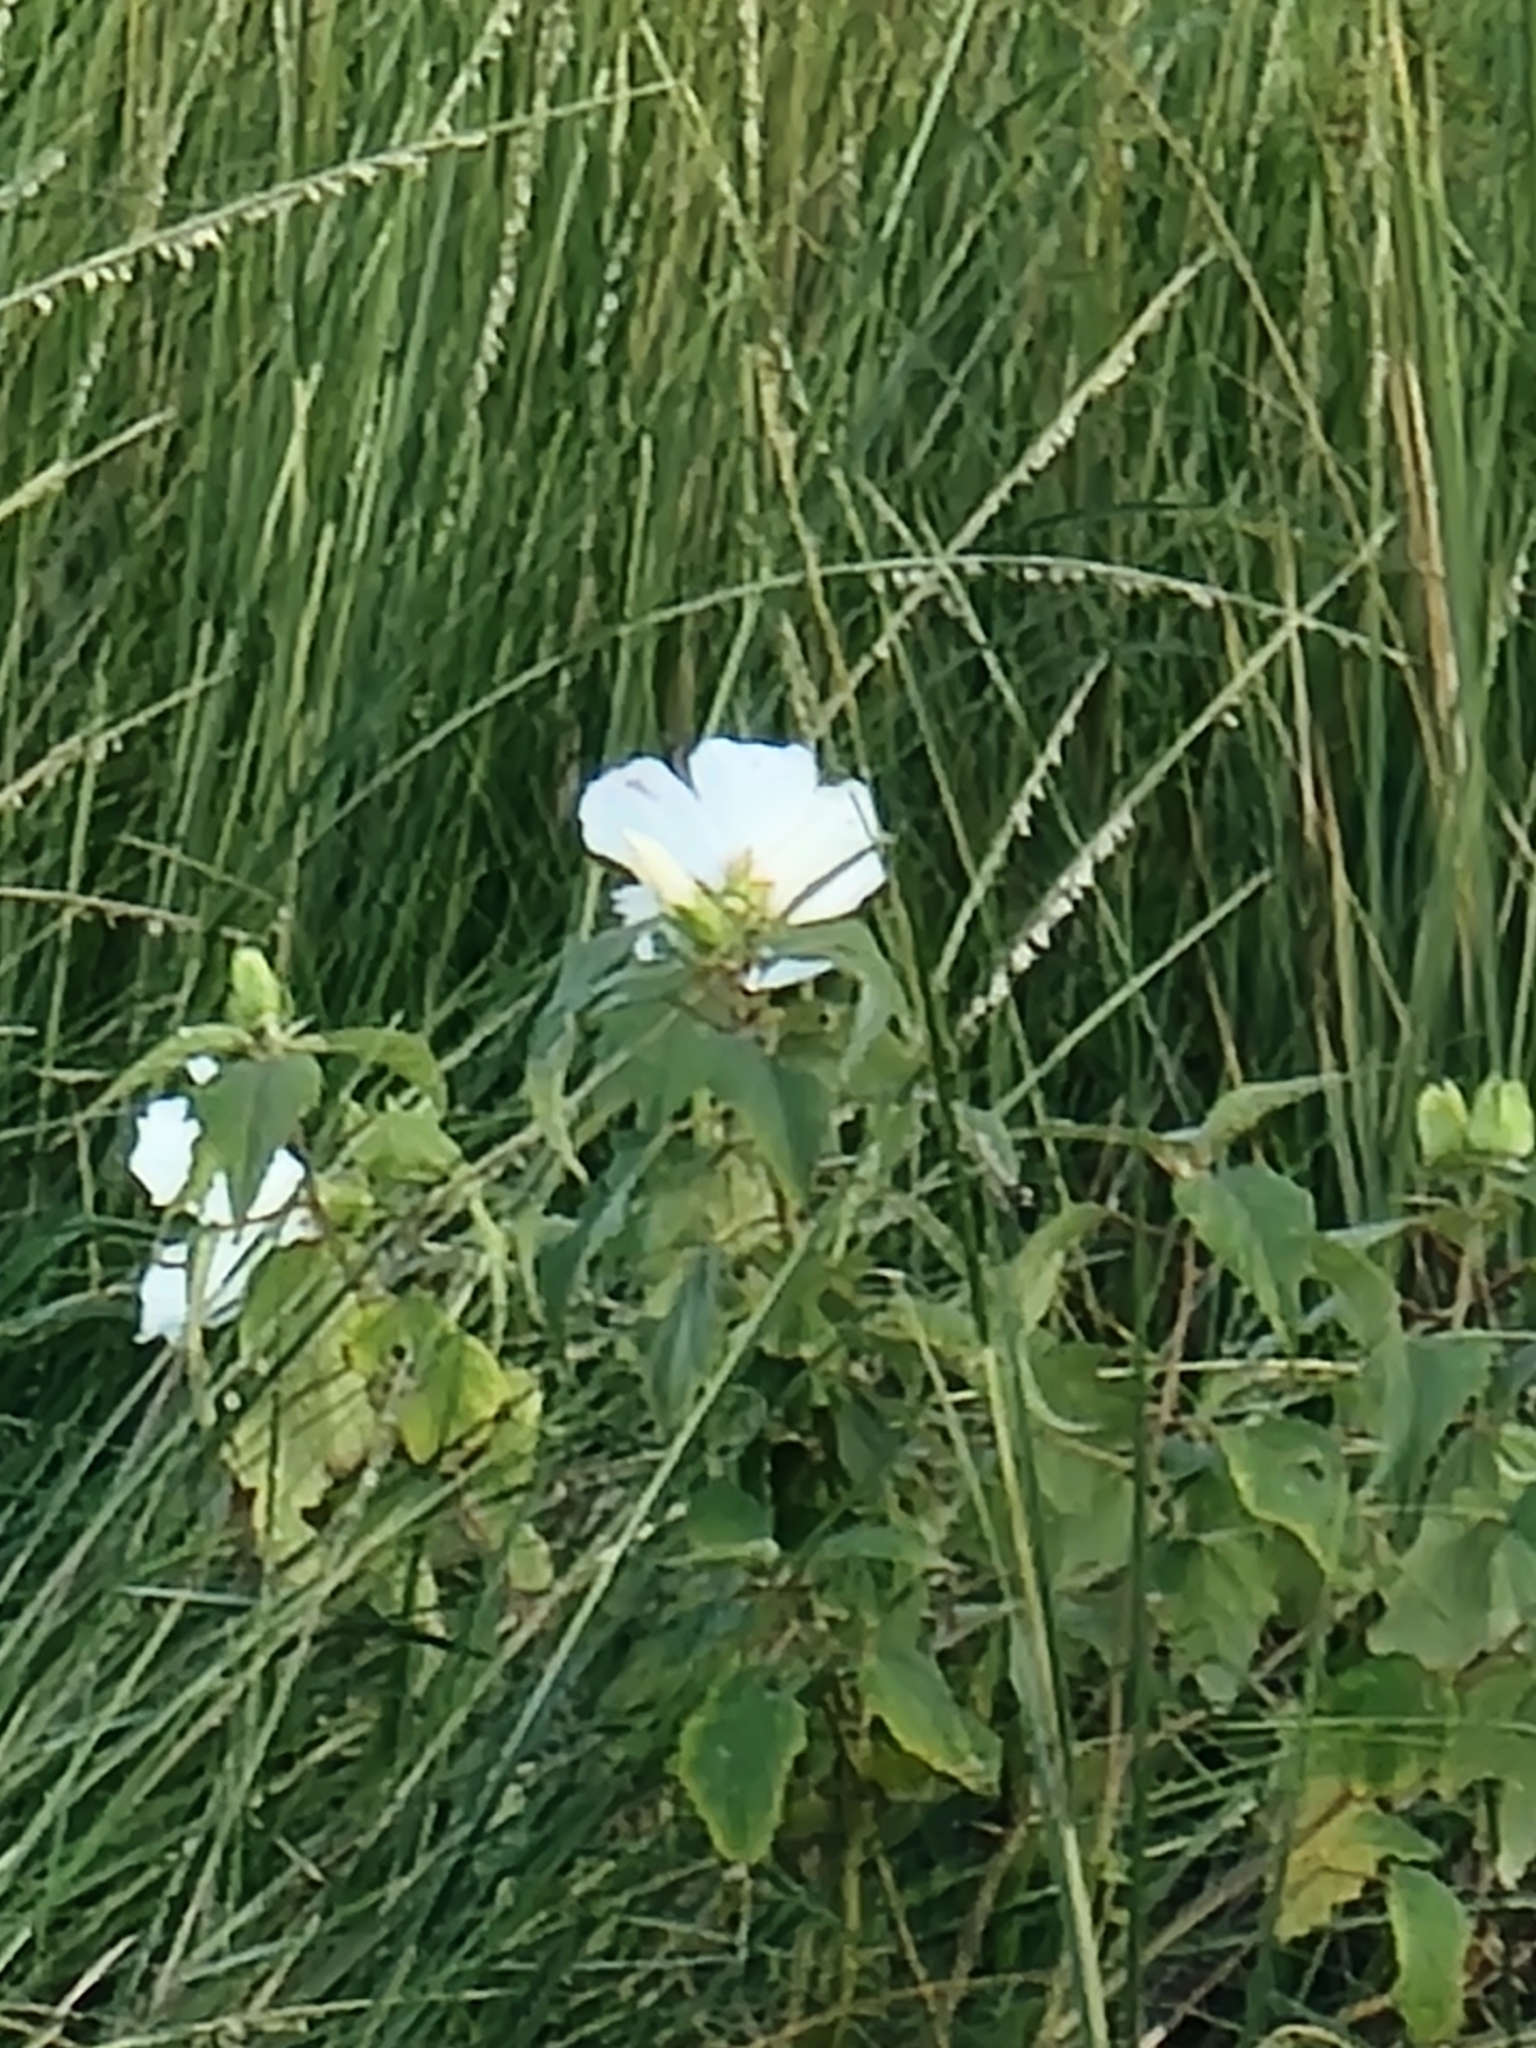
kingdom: Plantae
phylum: Tracheophyta
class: Magnoliopsida
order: Malvales
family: Malvaceae
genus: Hibiscus
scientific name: Hibiscus moscheutos
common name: Common rose-mallow
